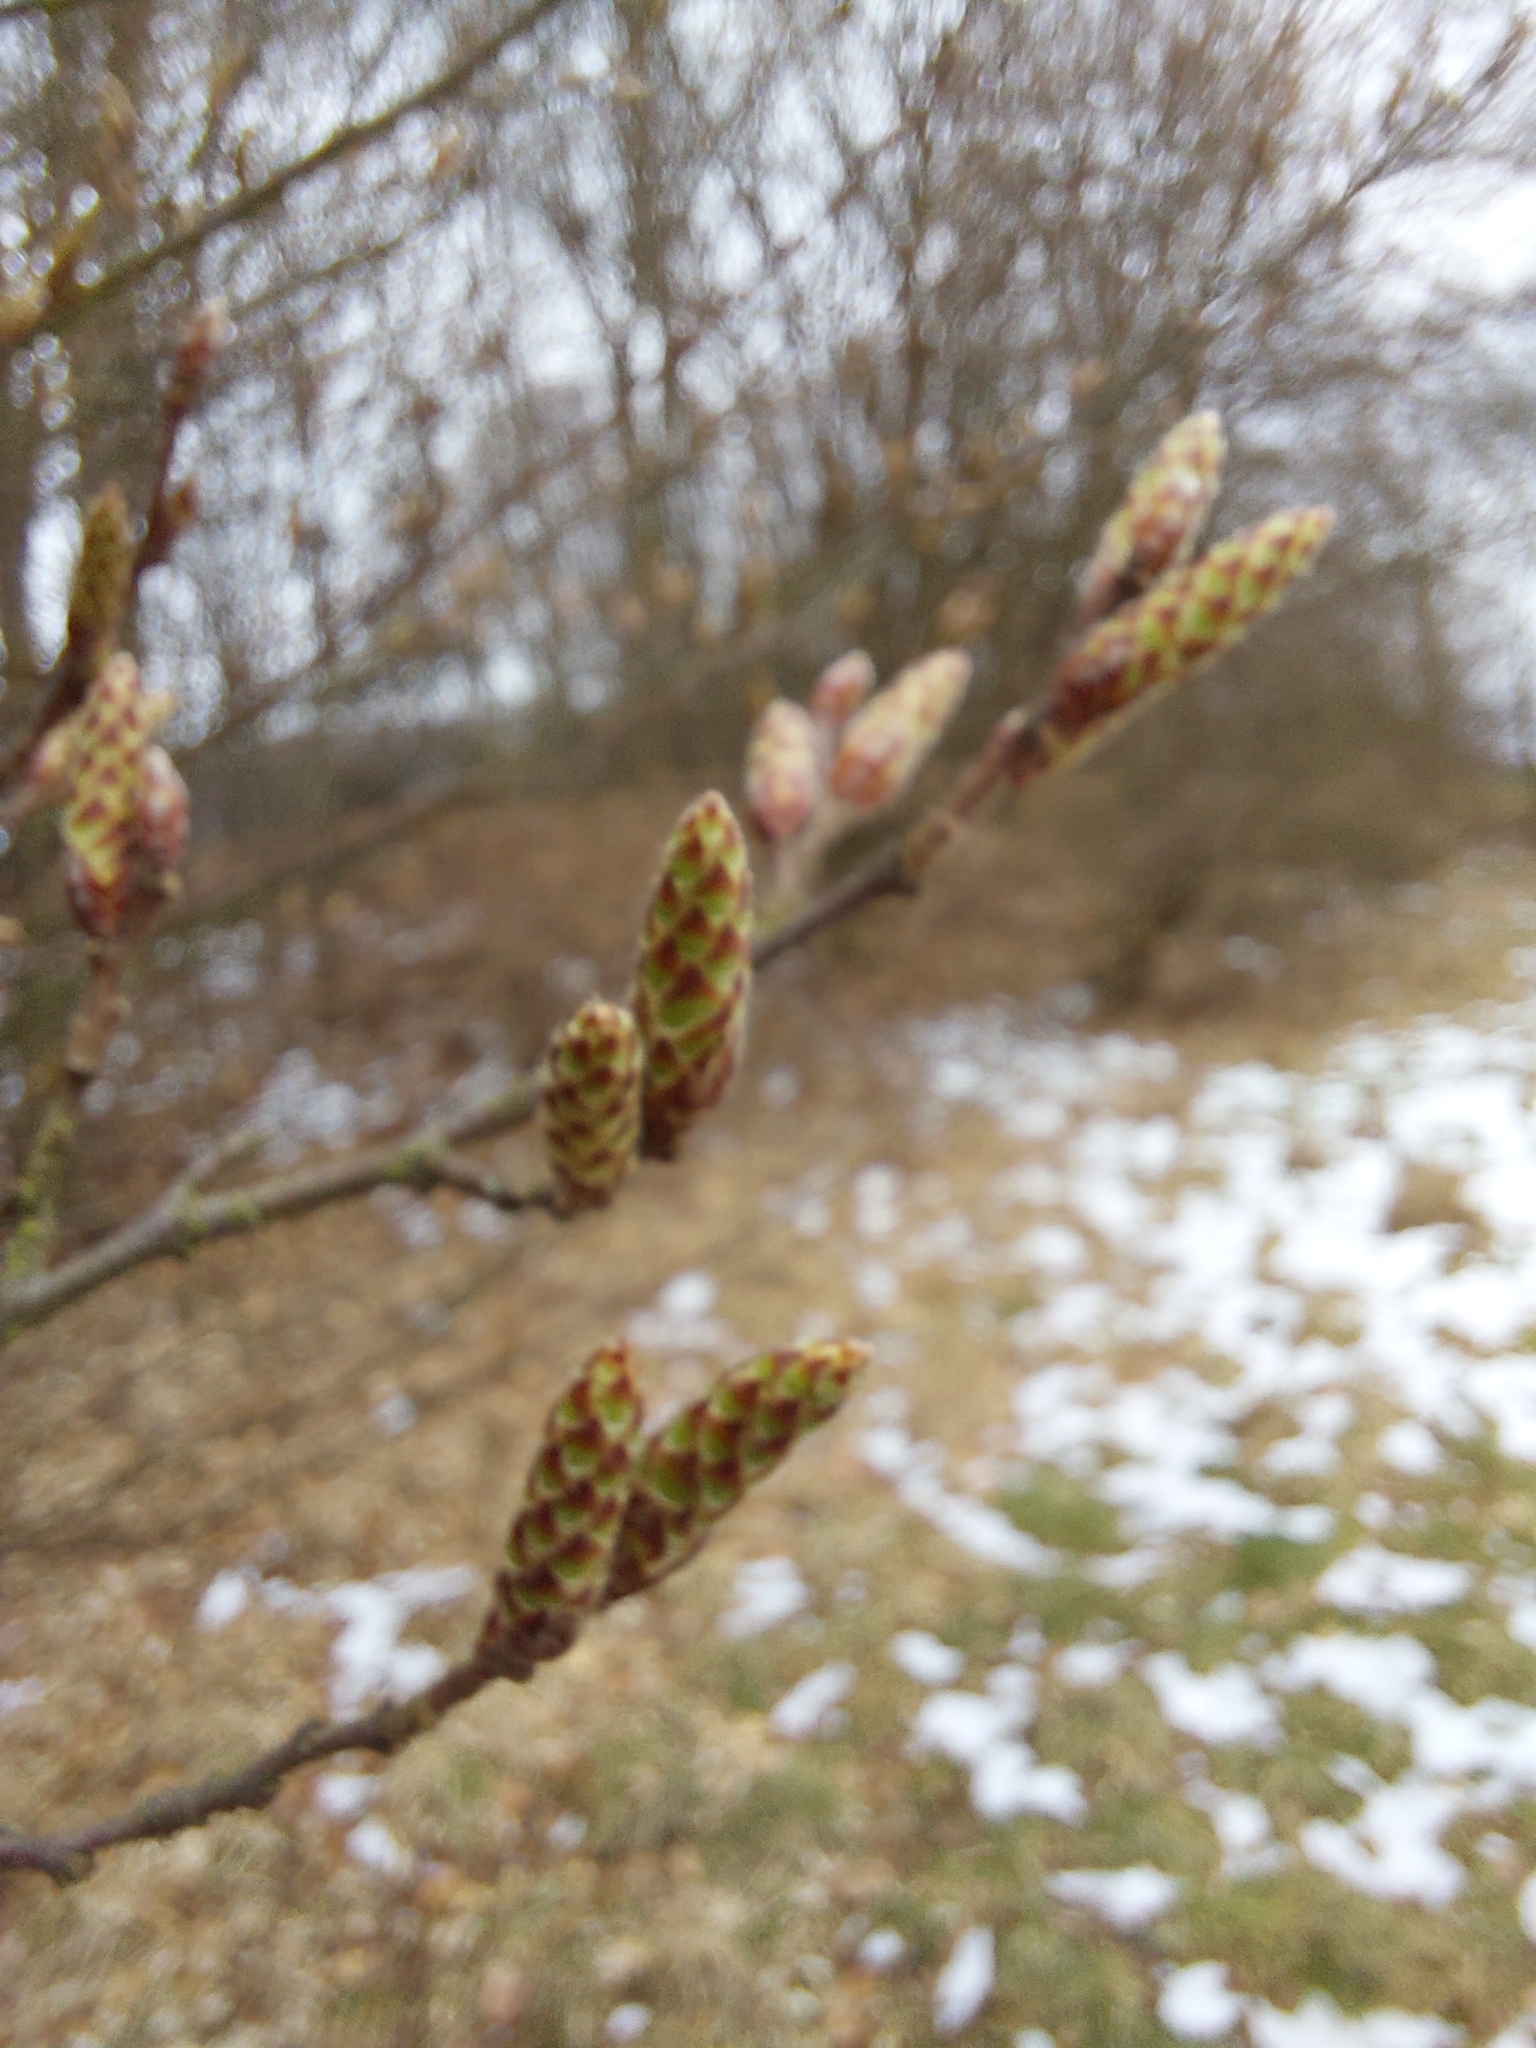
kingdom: Plantae
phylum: Tracheophyta
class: Magnoliopsida
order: Fagales
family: Betulaceae
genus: Carpinus
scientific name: Carpinus betulus
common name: Hornbeam
